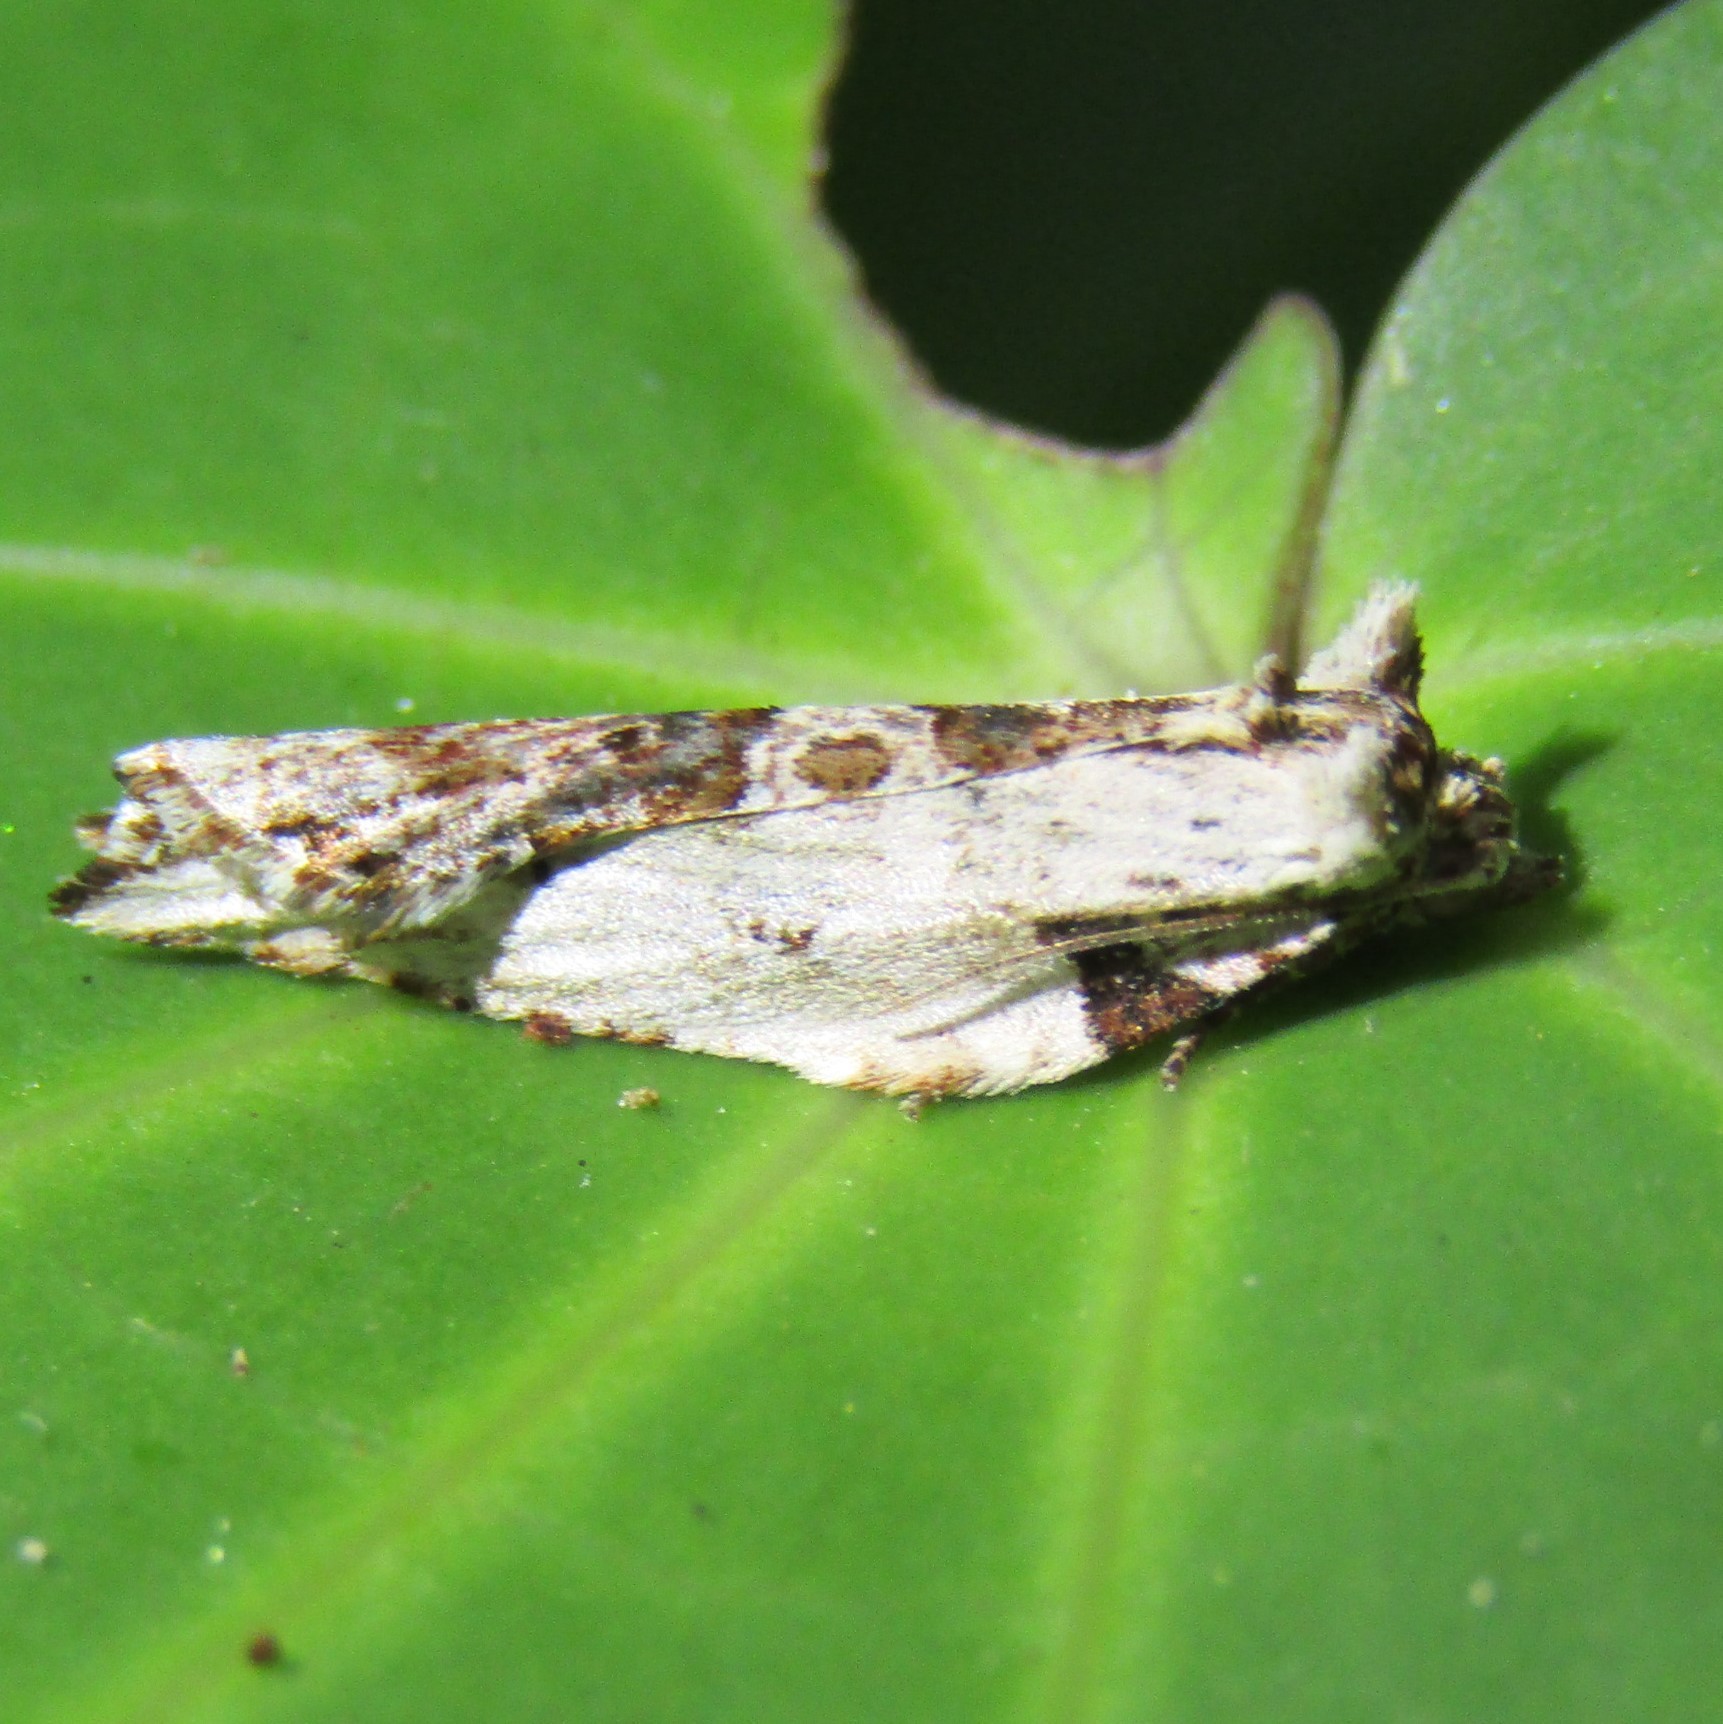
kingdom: Animalia
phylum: Arthropoda
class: Insecta
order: Lepidoptera
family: Tortricidae
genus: Epalxiphora
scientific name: Epalxiphora axenana
